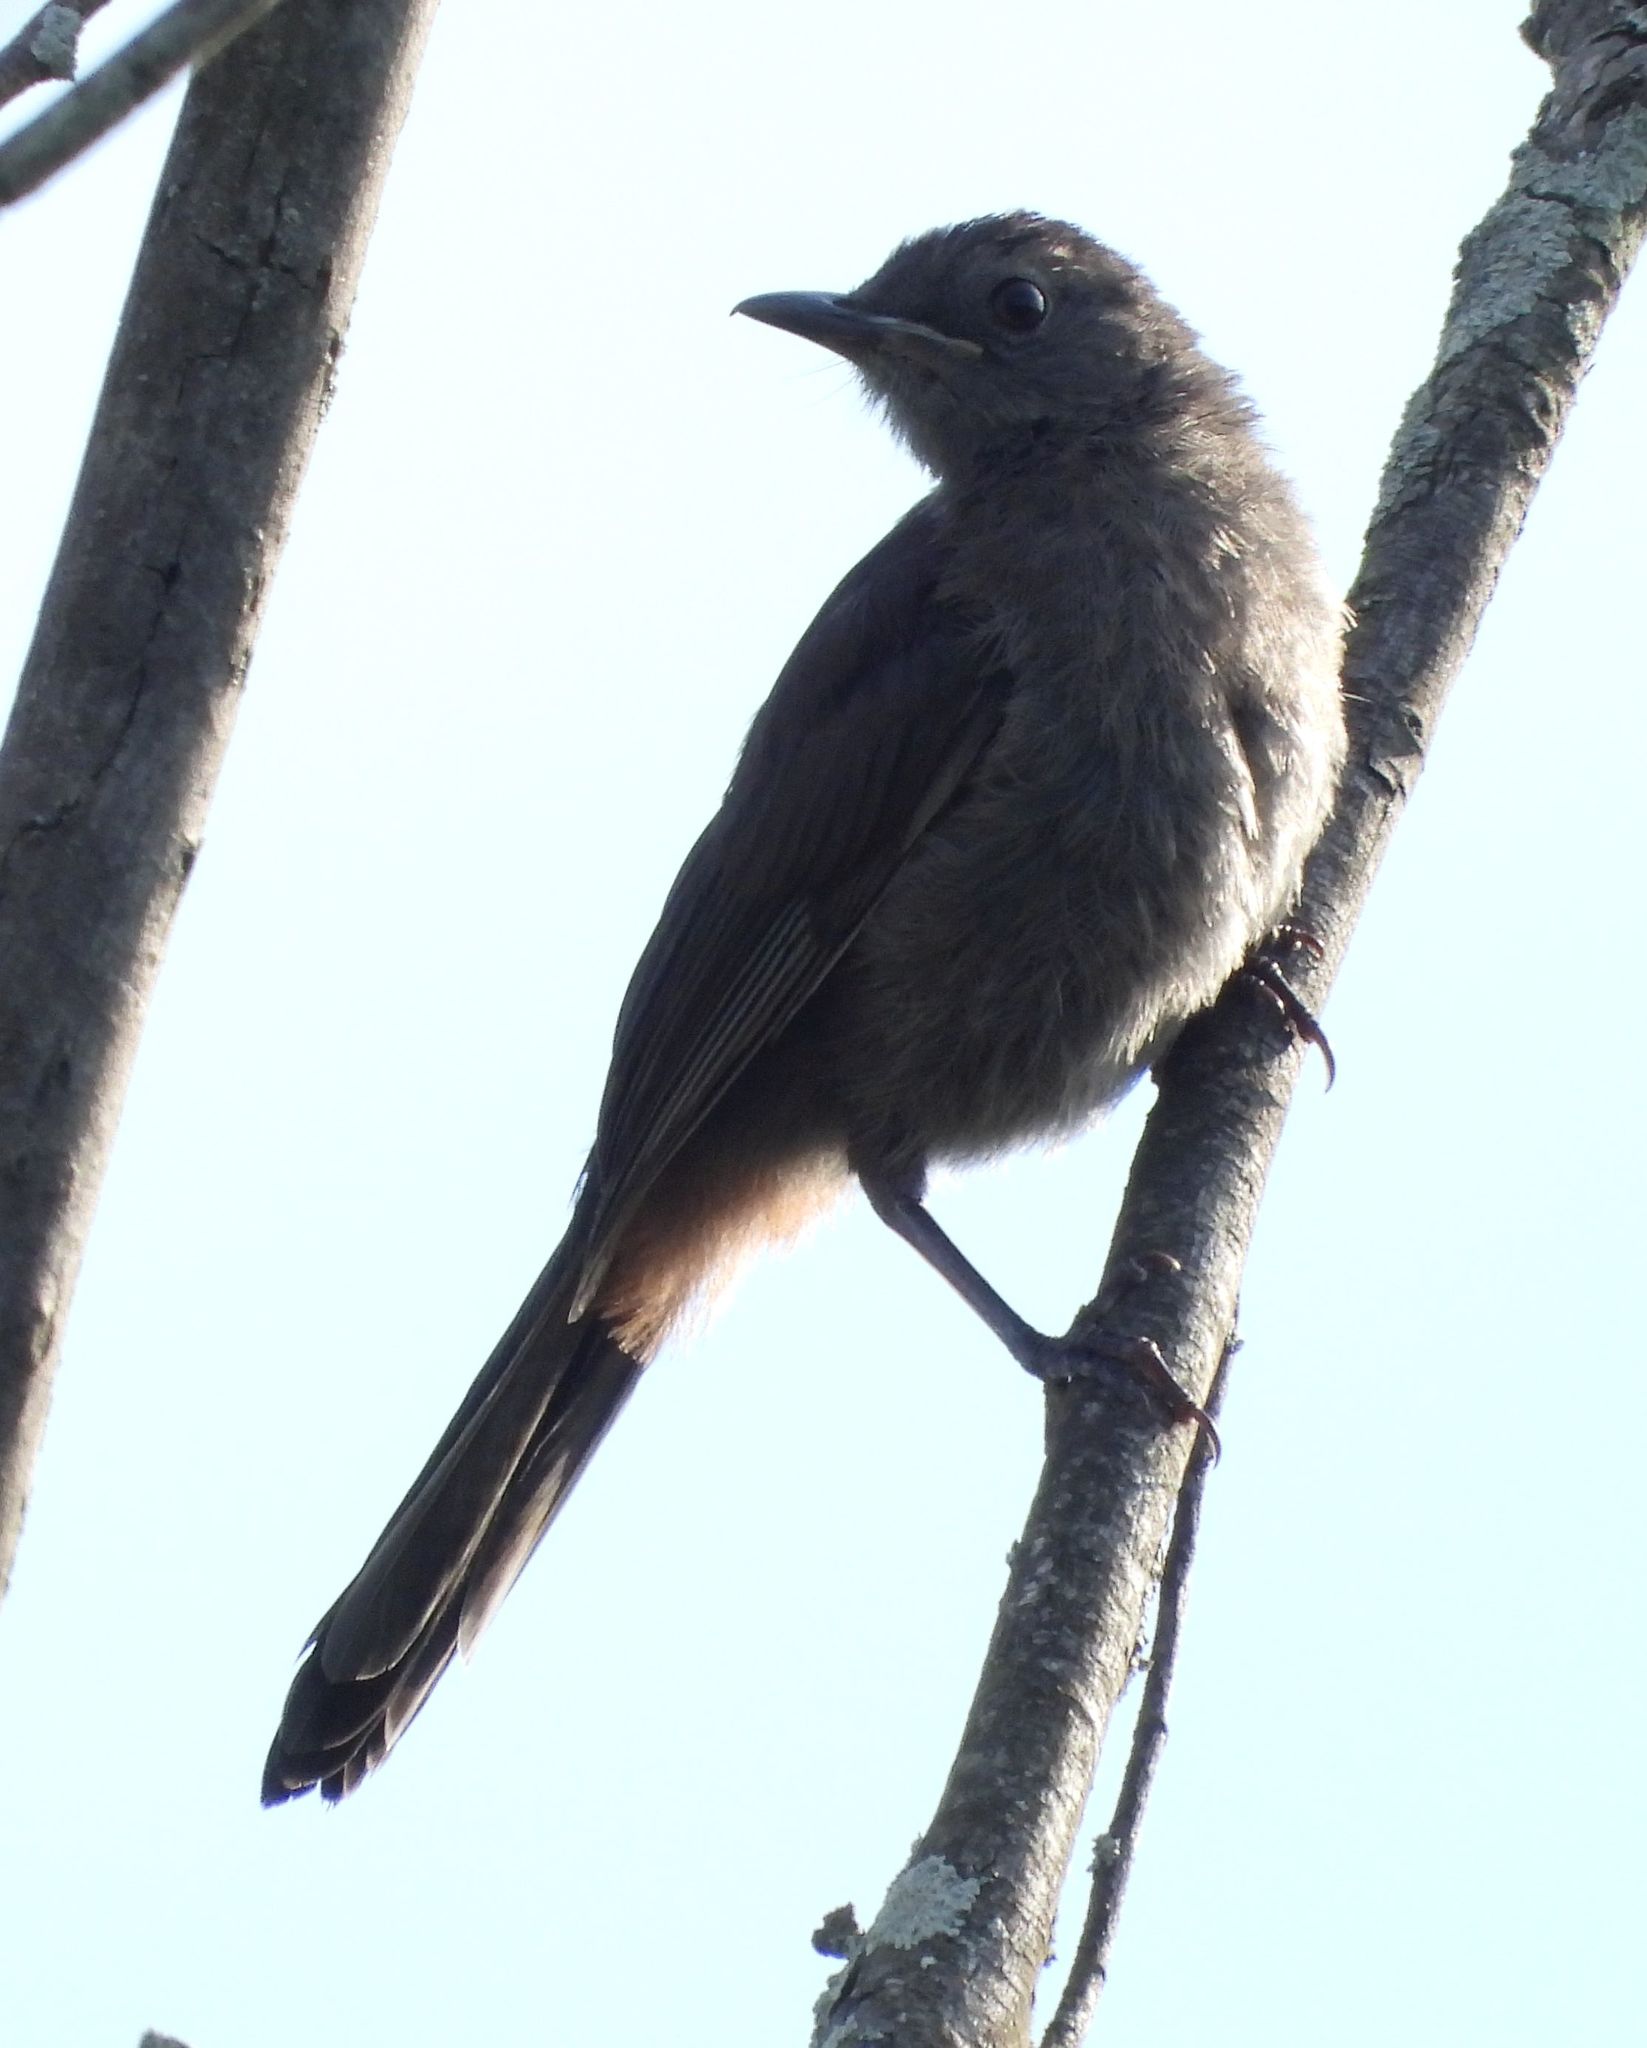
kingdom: Animalia
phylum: Chordata
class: Aves
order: Passeriformes
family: Mimidae
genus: Dumetella
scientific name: Dumetella carolinensis
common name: Gray catbird
